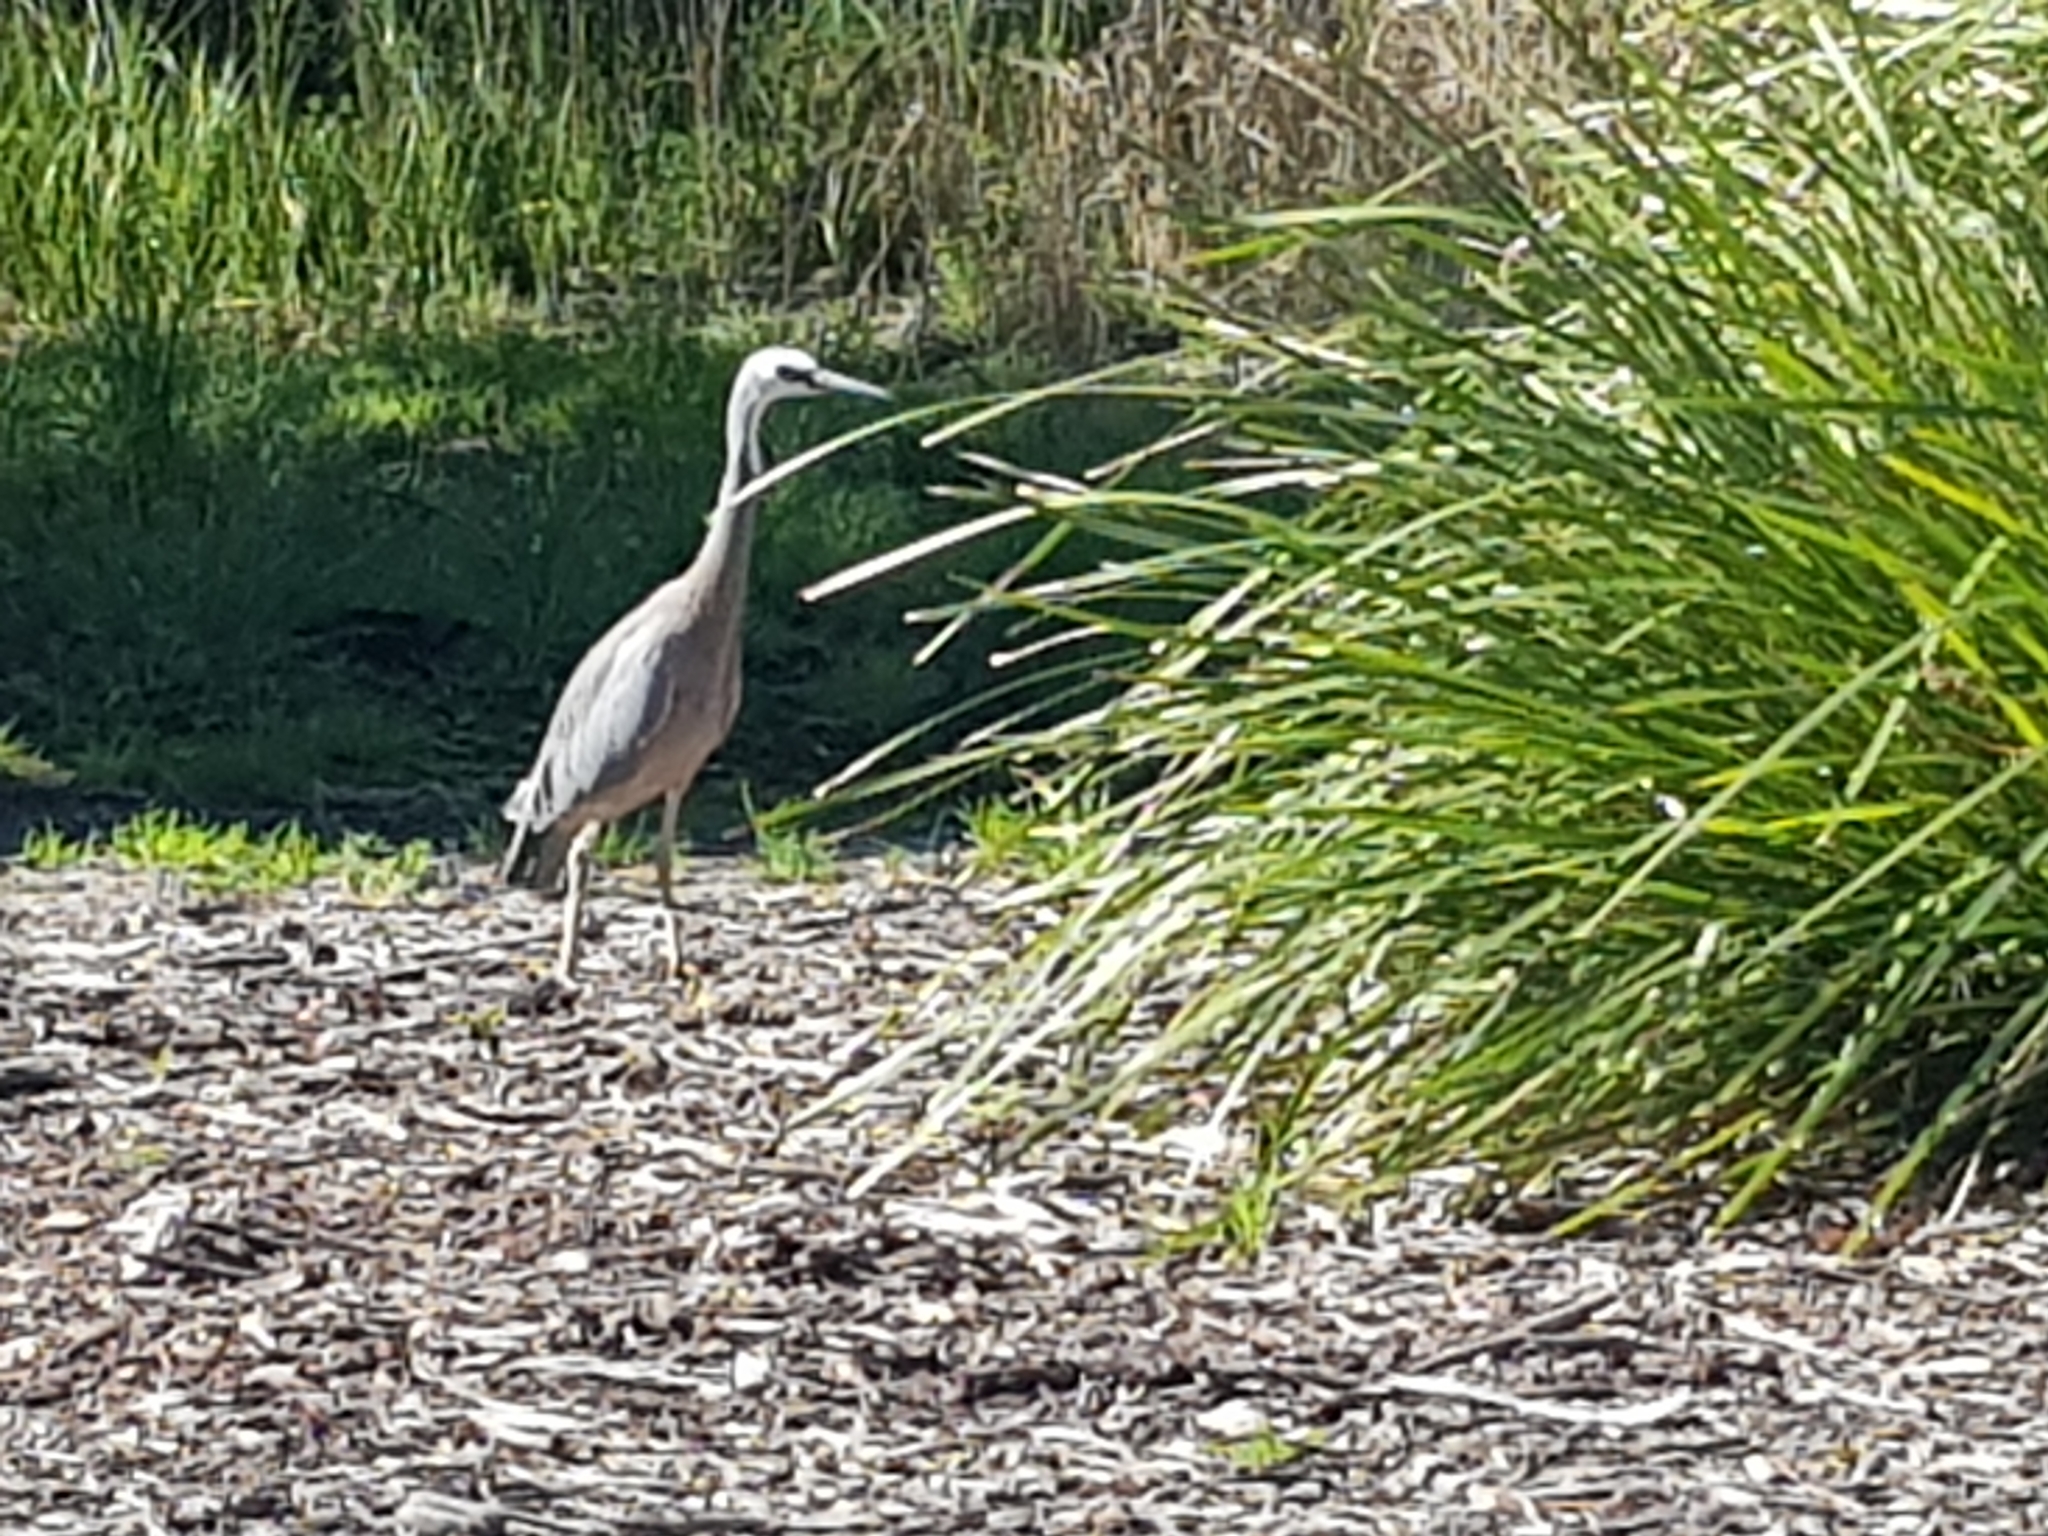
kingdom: Animalia
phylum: Chordata
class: Aves
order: Pelecaniformes
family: Ardeidae
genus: Egretta
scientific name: Egretta novaehollandiae
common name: White-faced heron
